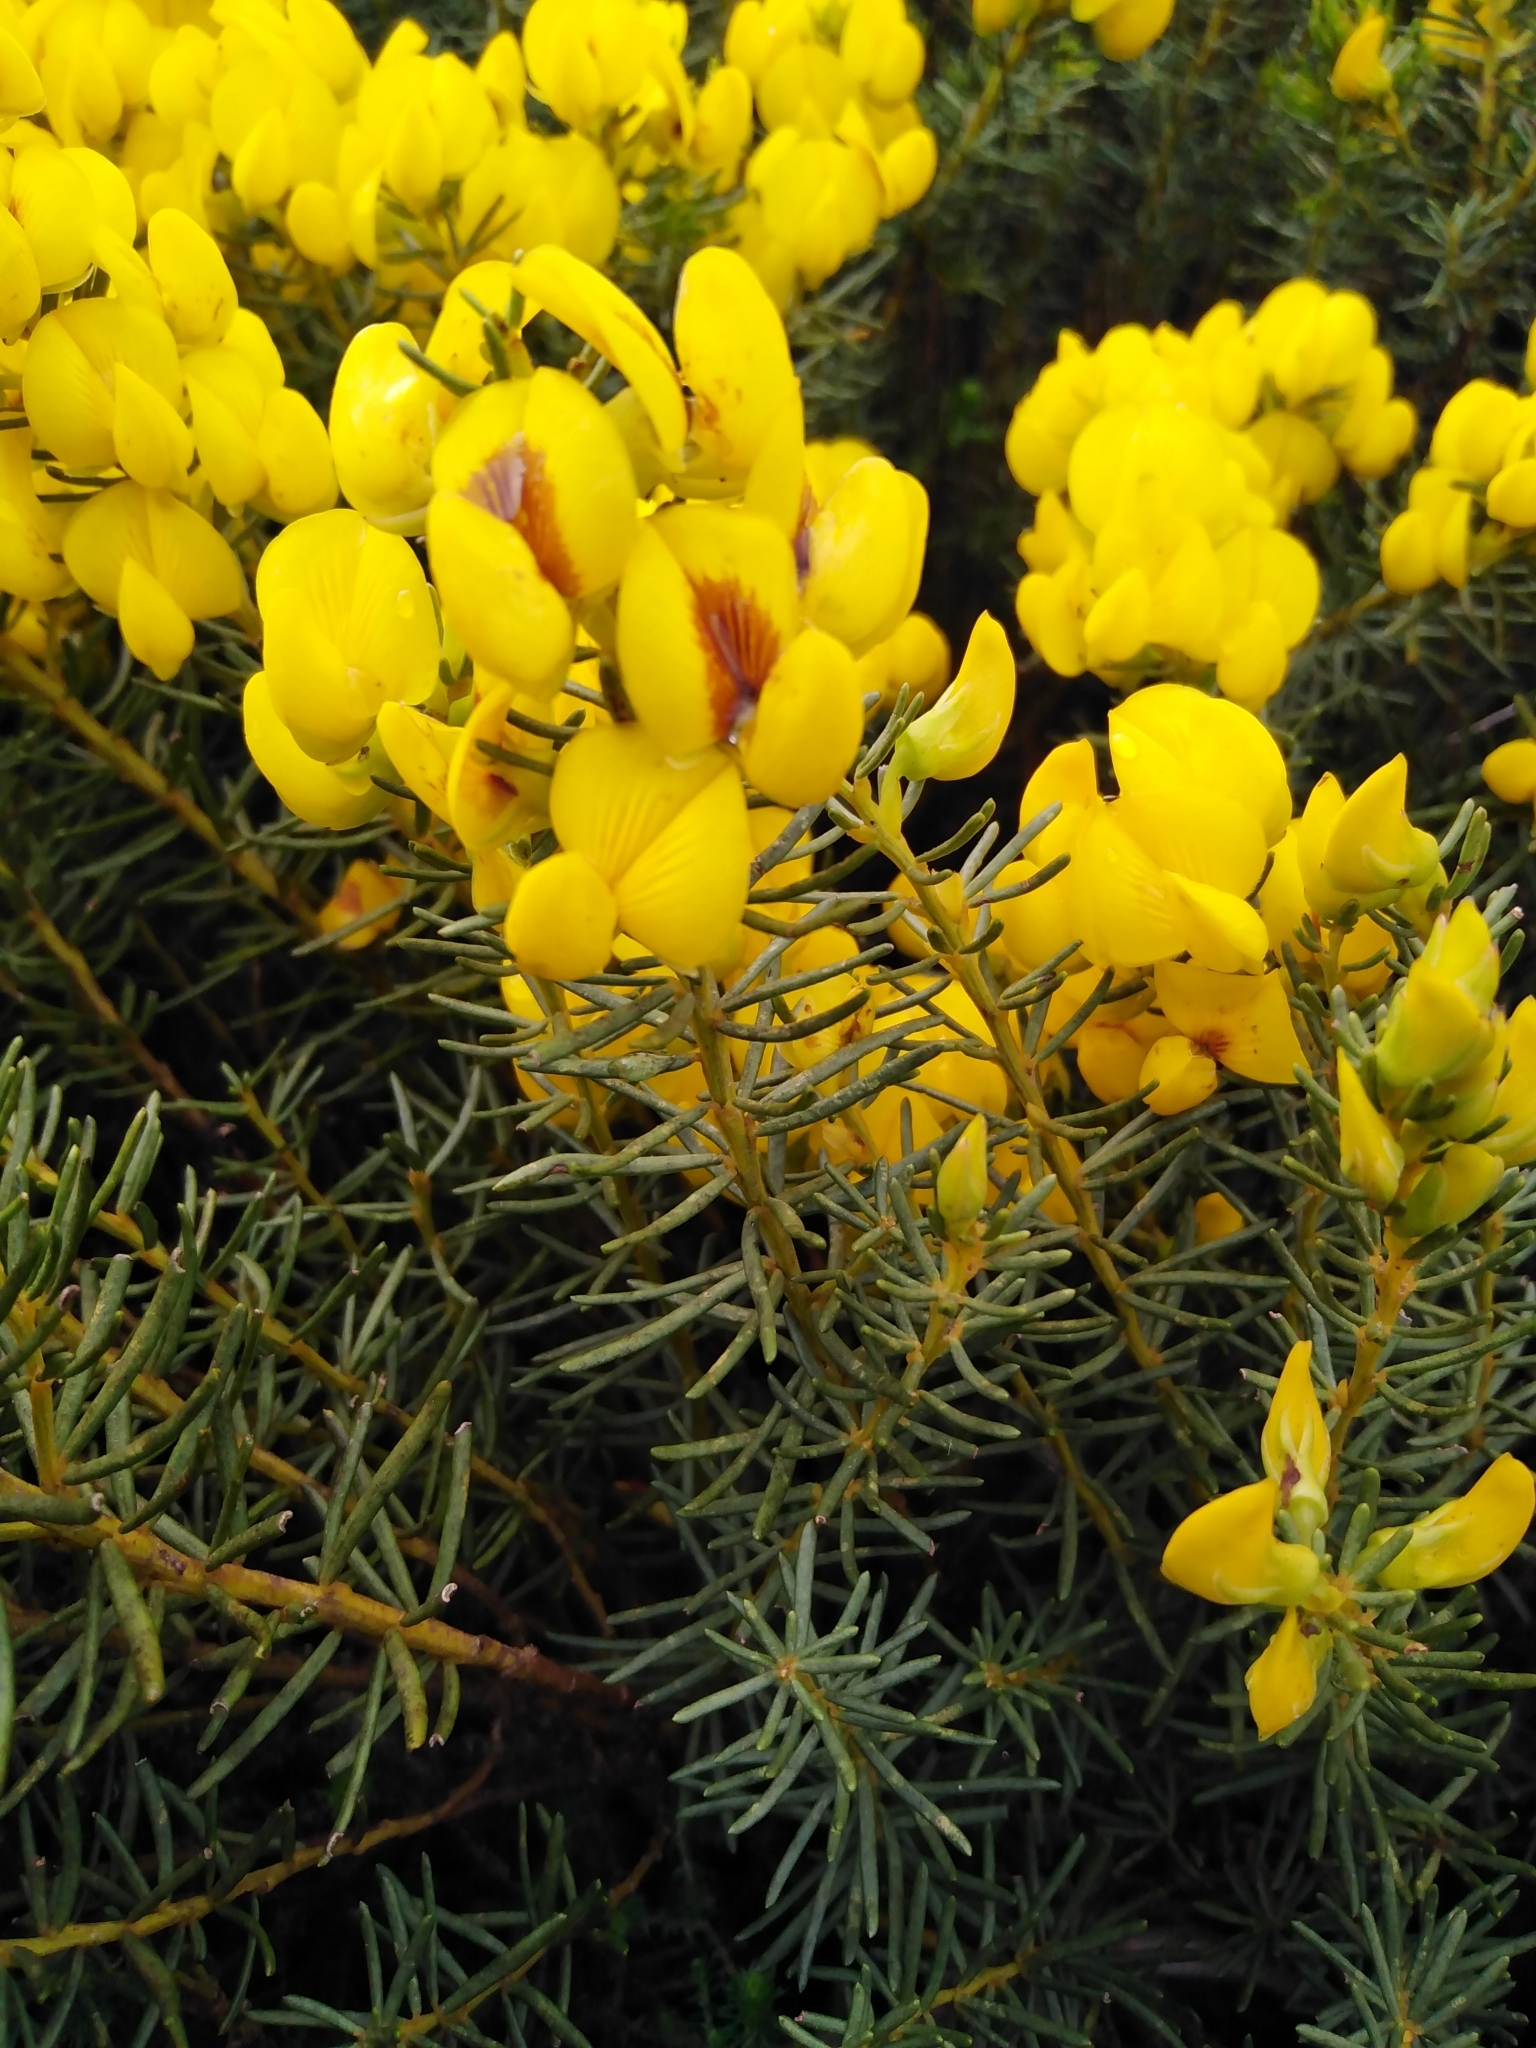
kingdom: Plantae
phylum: Tracheophyta
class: Magnoliopsida
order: Fabales
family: Fabaceae
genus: Cyclopia
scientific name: Cyclopia genistoides
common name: Honeybush tea
